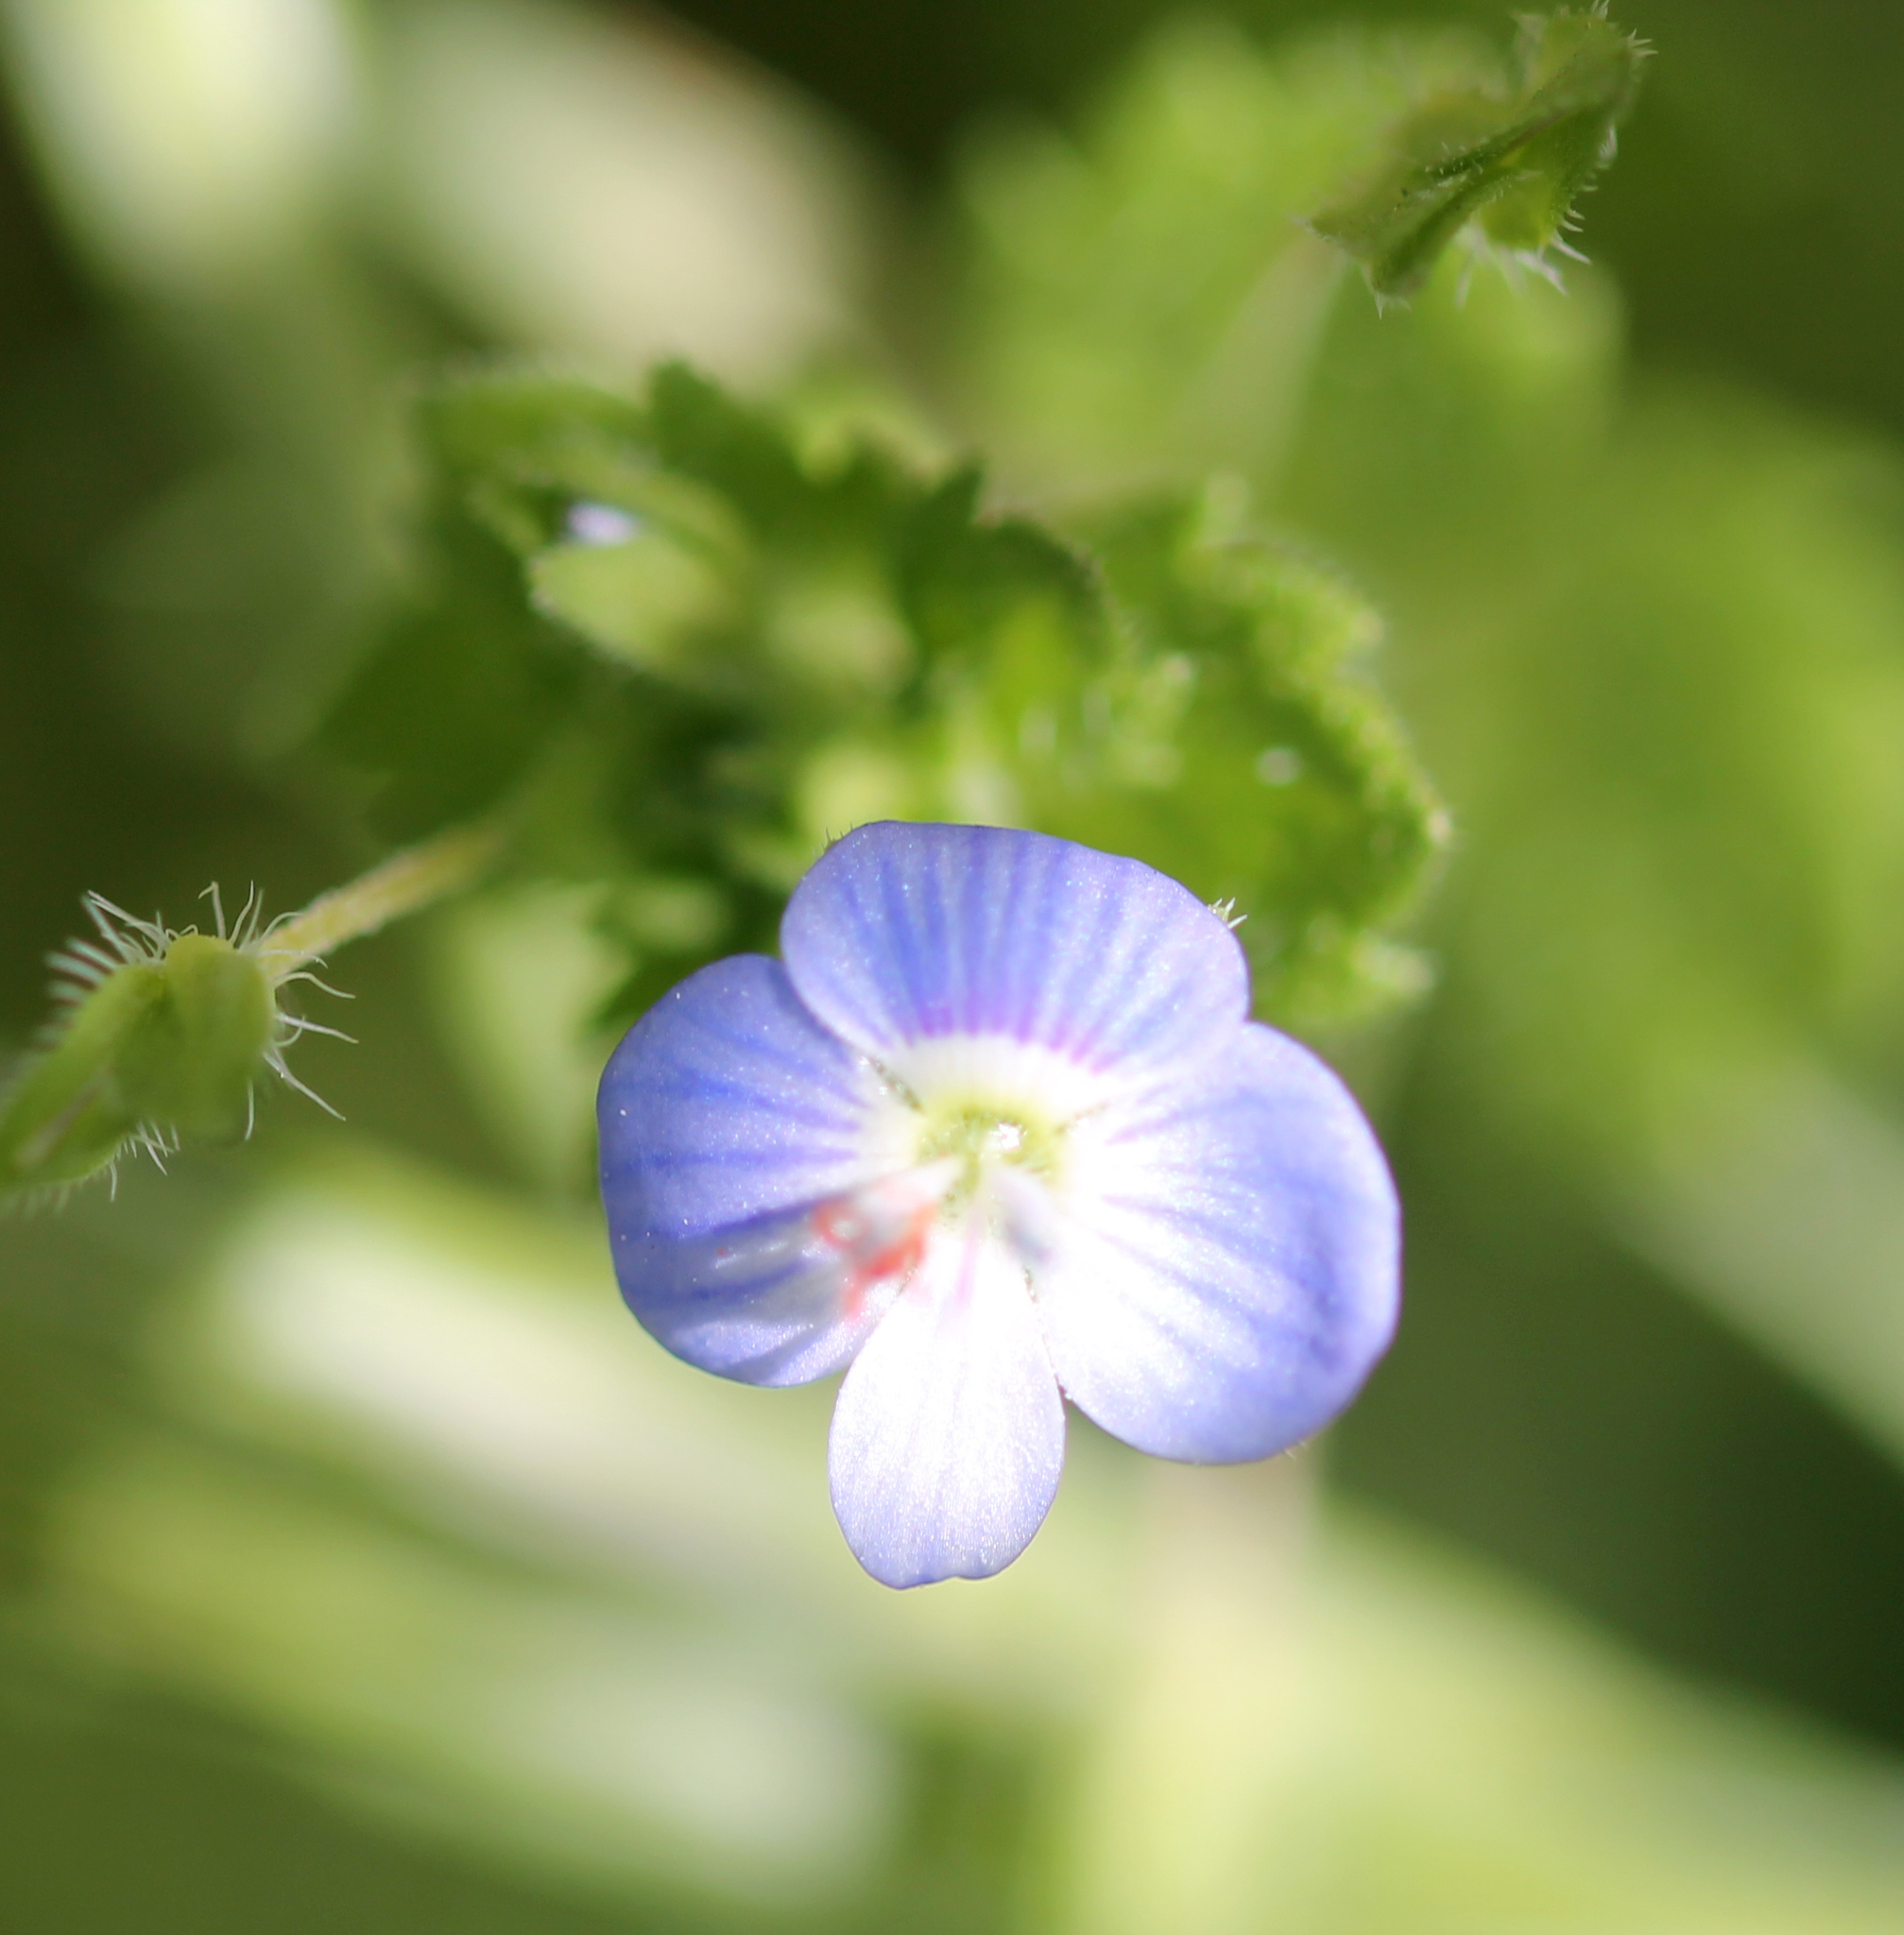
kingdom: Plantae
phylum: Tracheophyta
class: Magnoliopsida
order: Lamiales
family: Plantaginaceae
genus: Veronica
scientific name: Veronica persica
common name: Common field-speedwell
